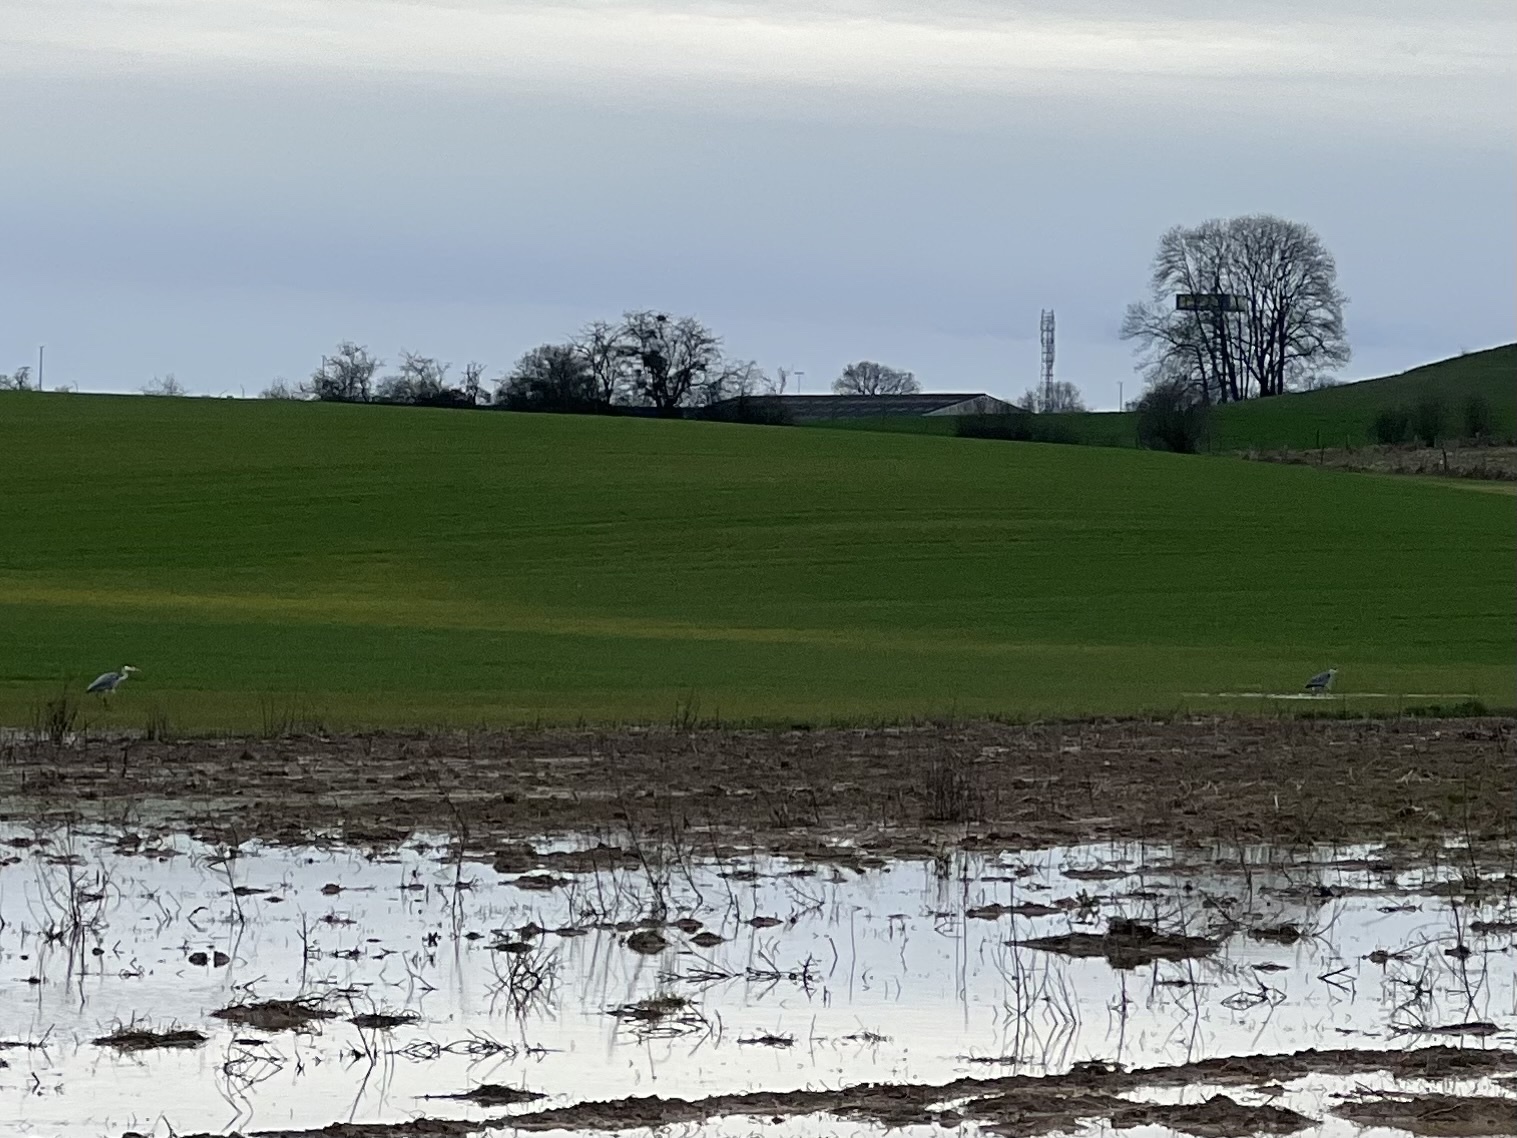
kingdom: Animalia
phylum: Chordata
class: Aves
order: Pelecaniformes
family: Ardeidae
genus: Ardea
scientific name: Ardea cinerea
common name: Grey heron
